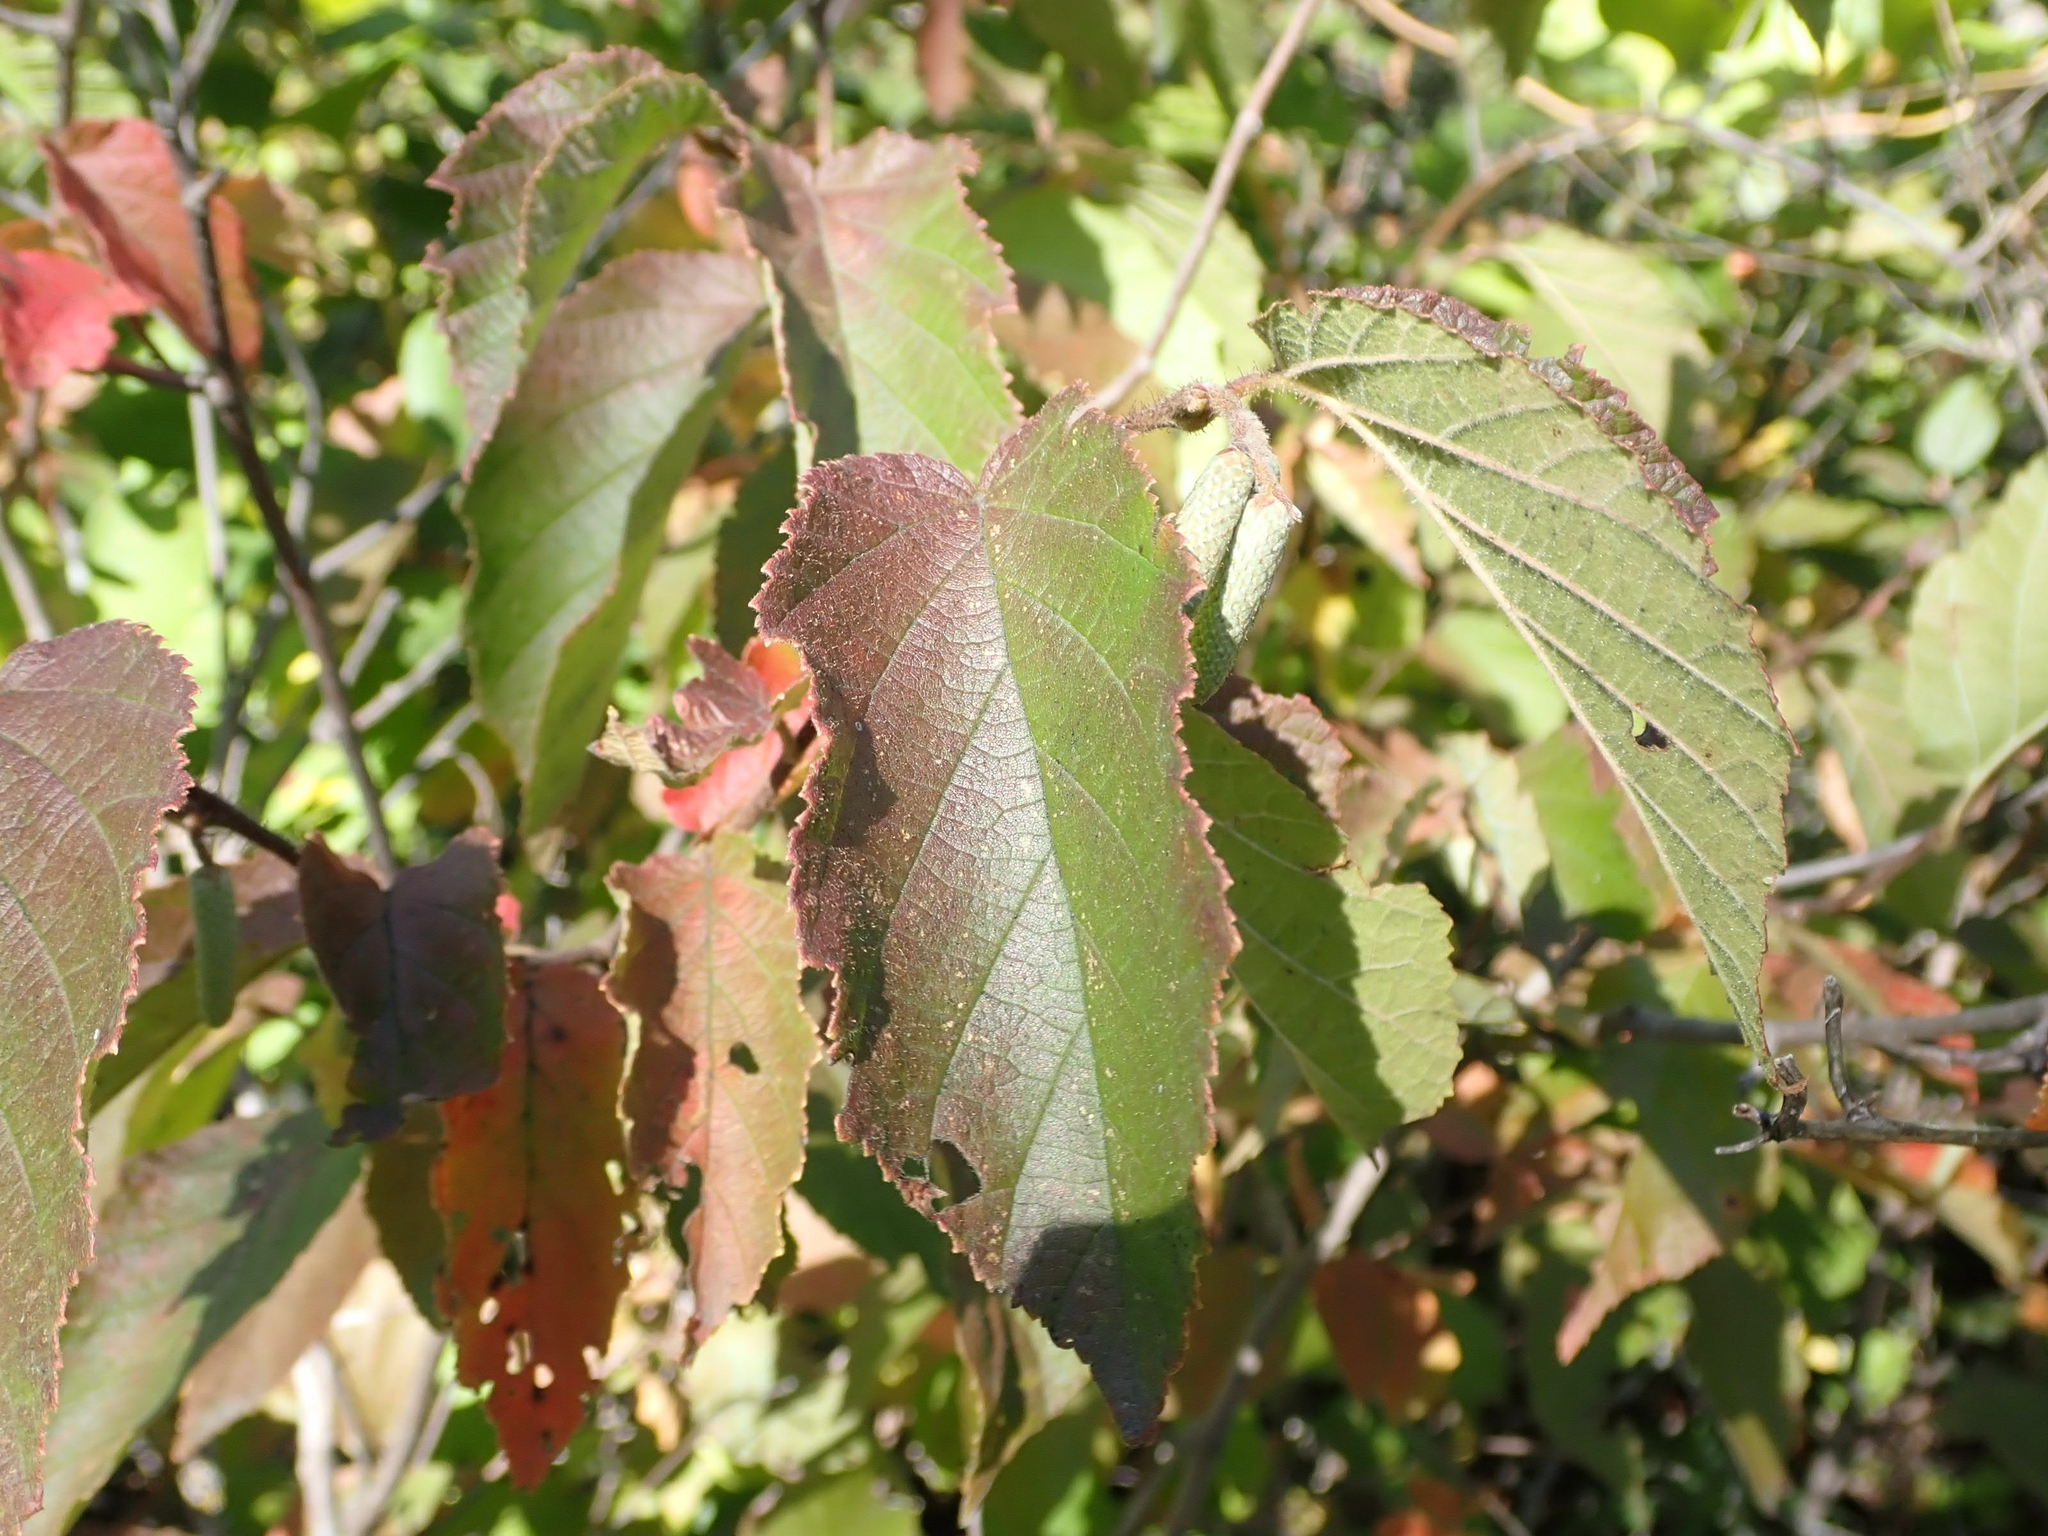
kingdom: Plantae
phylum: Tracheophyta
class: Magnoliopsida
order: Fagales
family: Betulaceae
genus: Corylus
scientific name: Corylus americana
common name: American hazel
